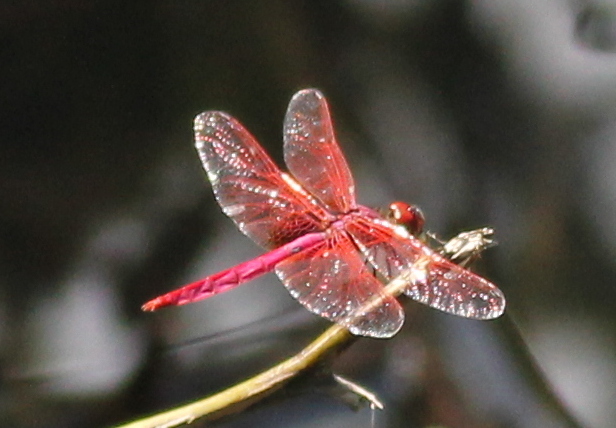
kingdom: Animalia
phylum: Arthropoda
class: Insecta
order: Odonata
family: Libellulidae
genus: Trithemis
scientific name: Trithemis aurora
